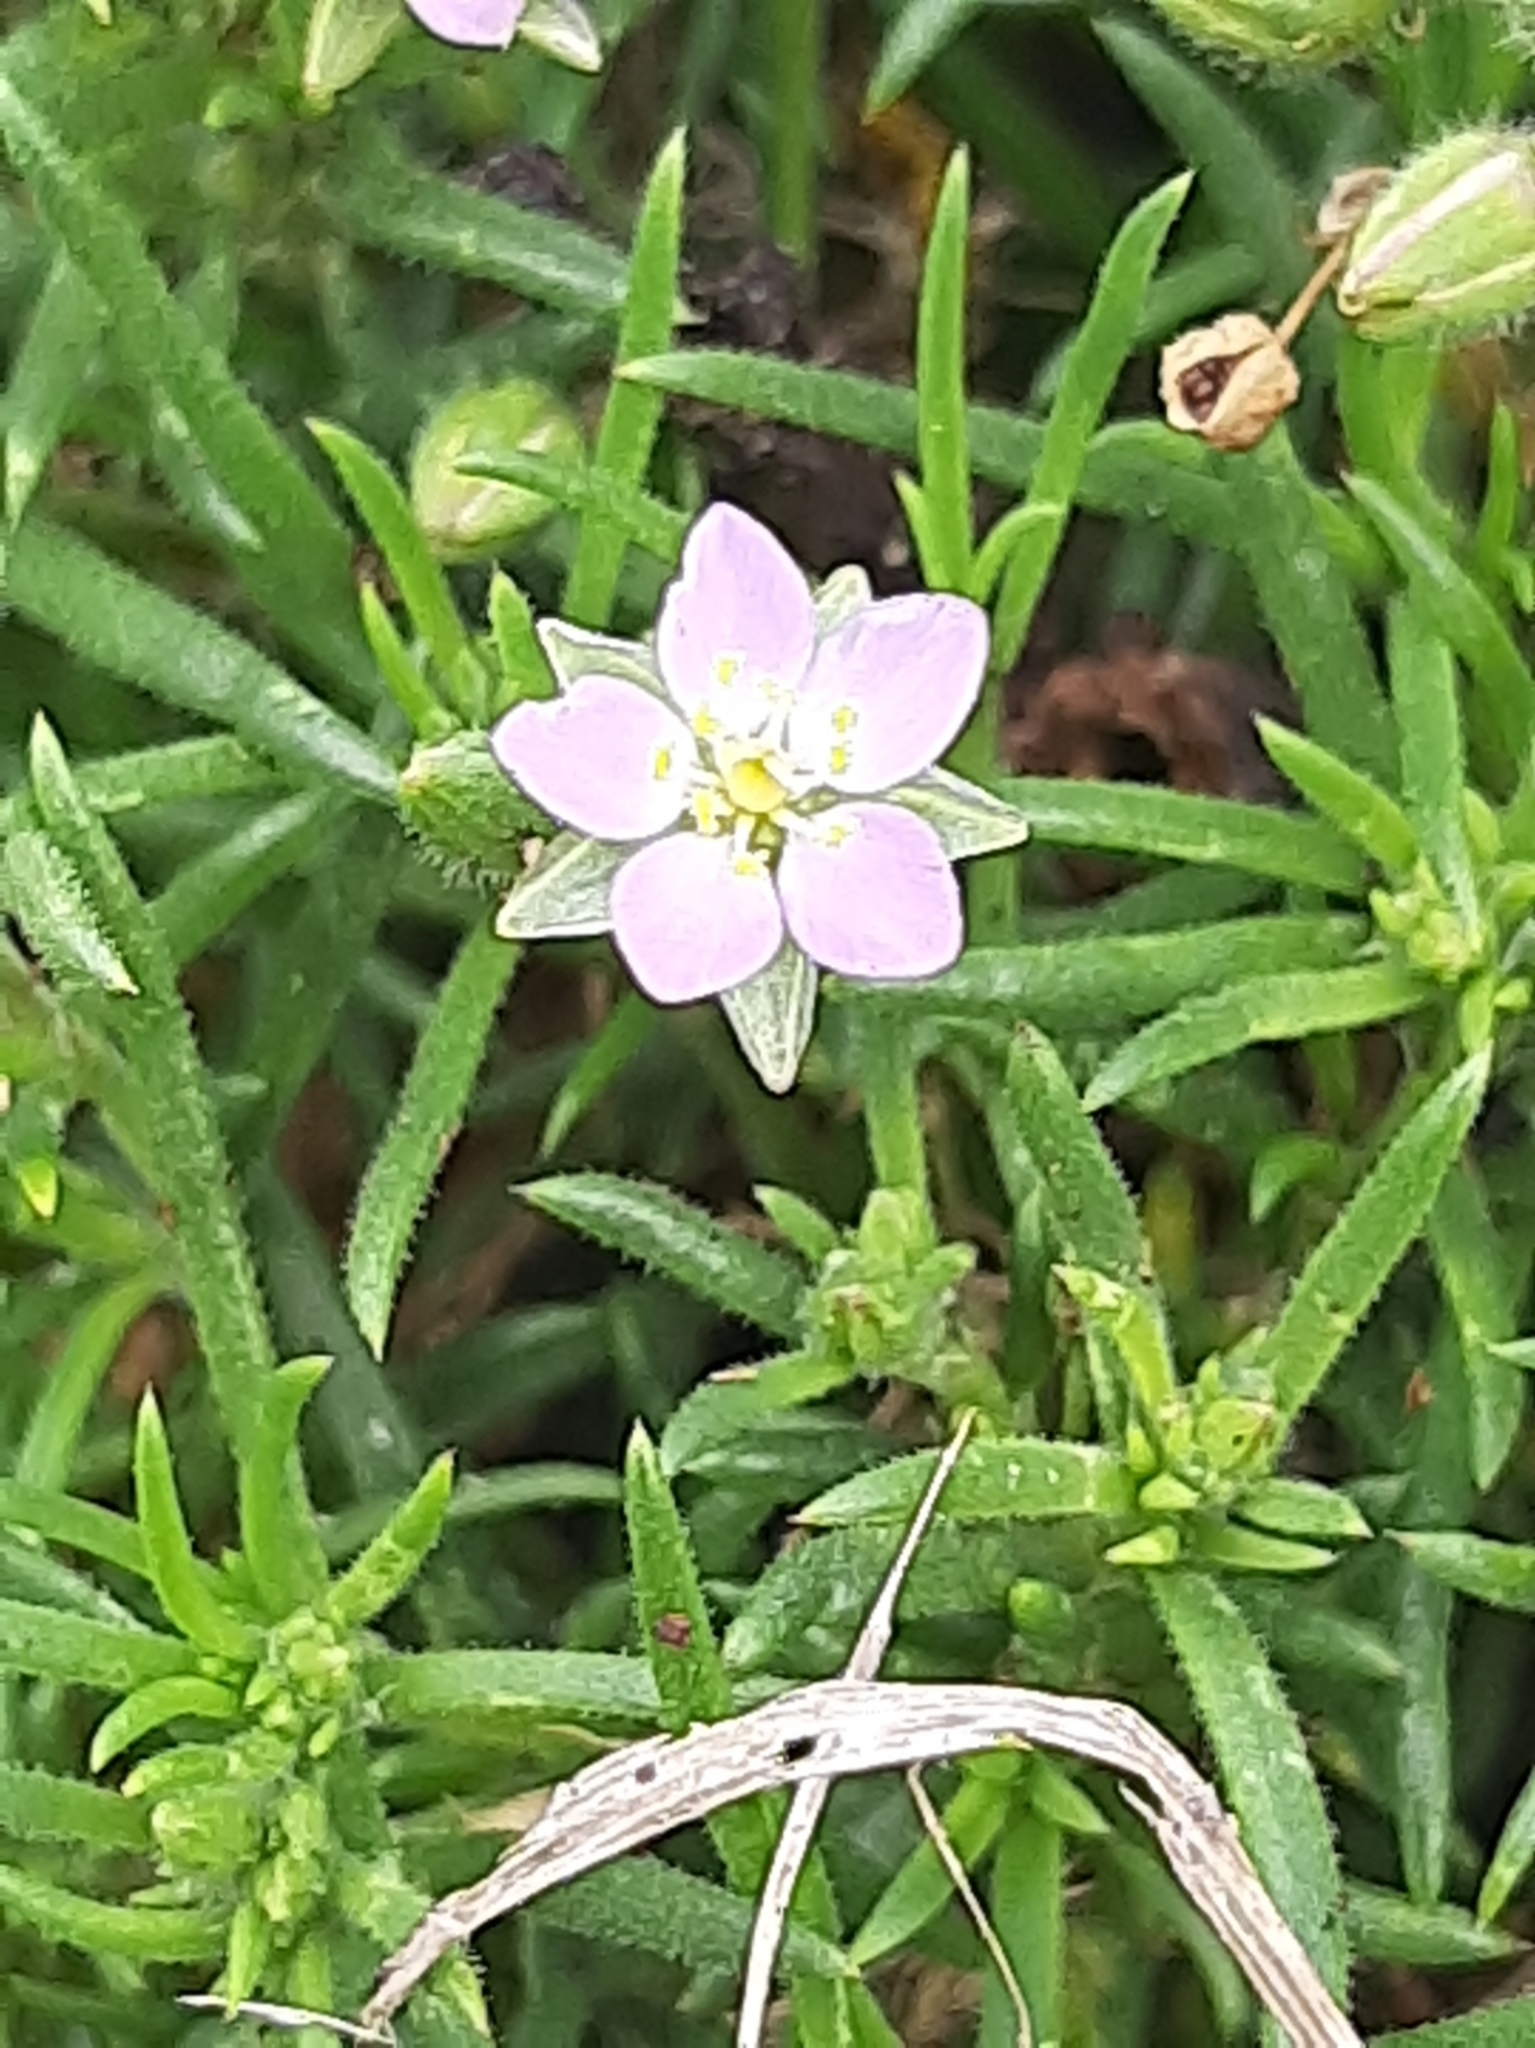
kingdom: Plantae
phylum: Tracheophyta
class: Magnoliopsida
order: Caryophyllales
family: Caryophyllaceae
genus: Spergularia
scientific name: Spergularia rubra
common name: Red sand-spurrey
